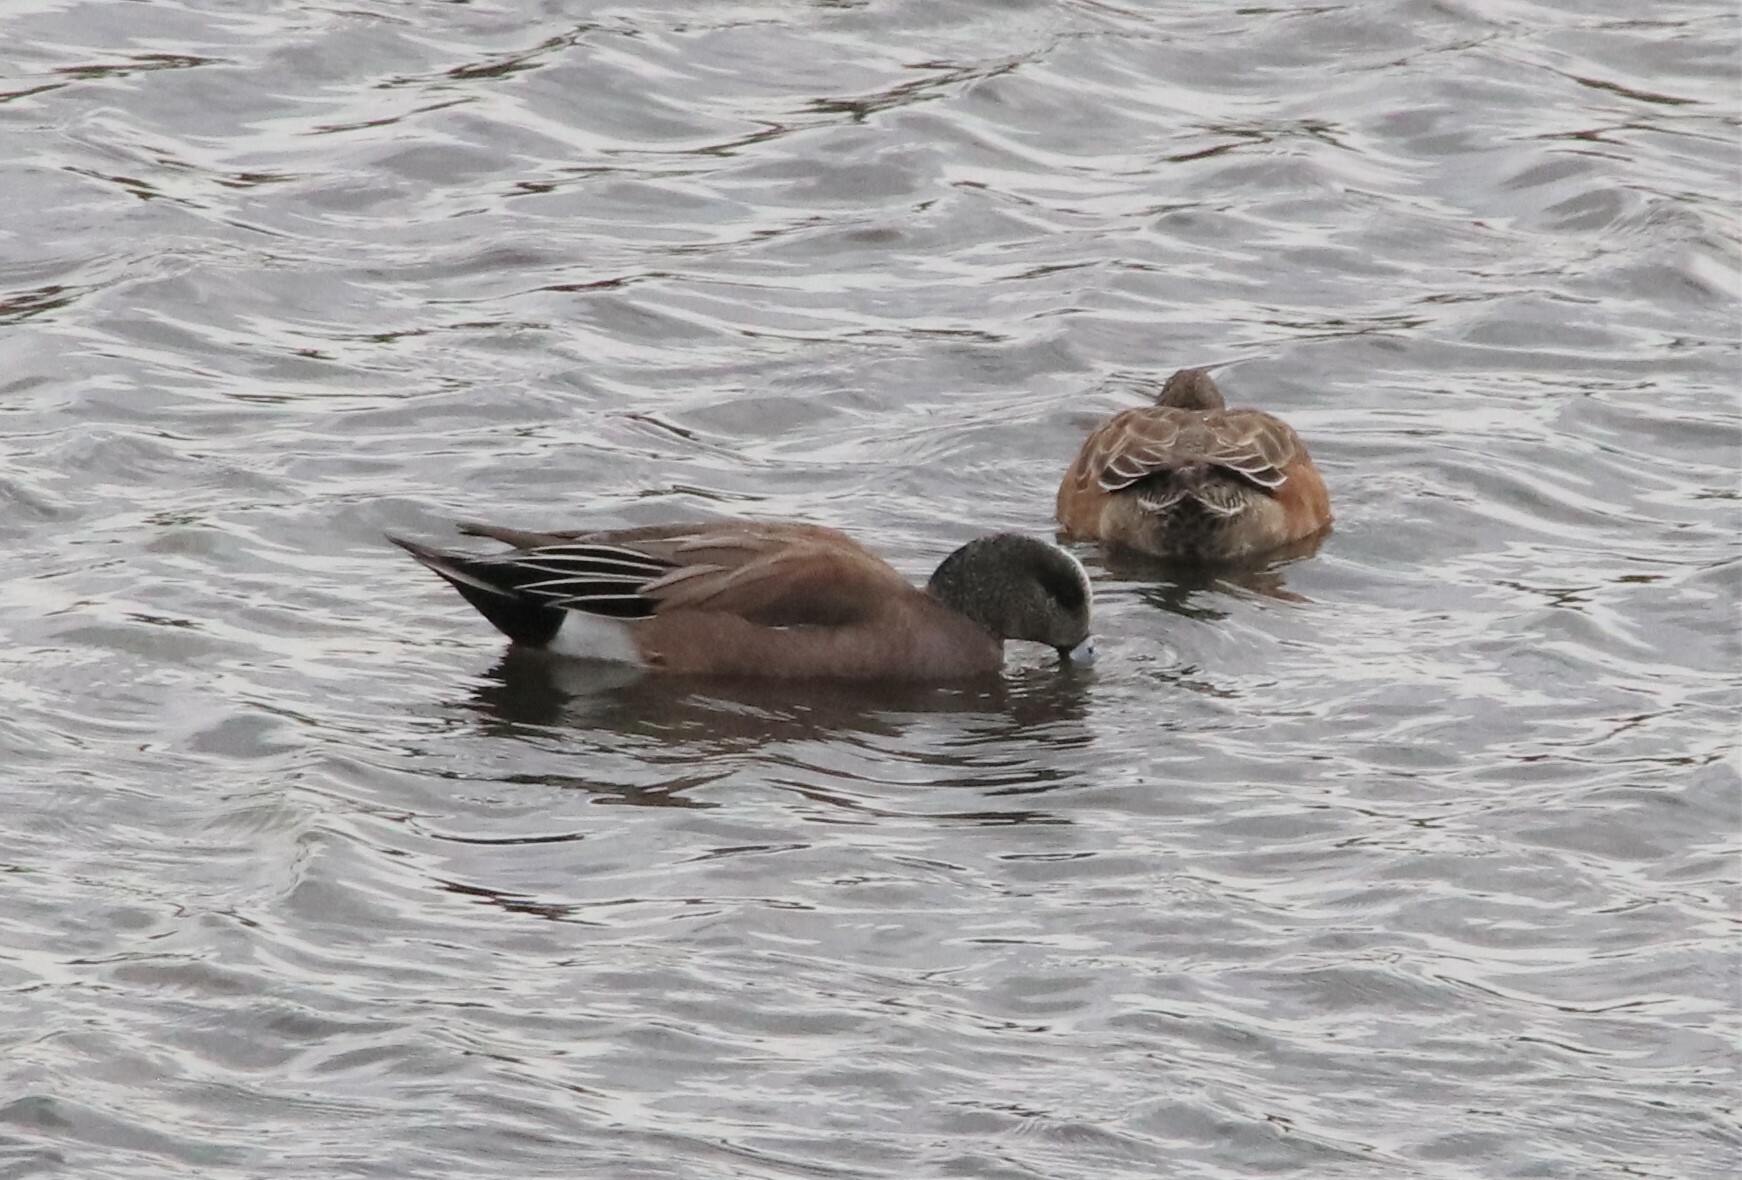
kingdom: Animalia
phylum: Chordata
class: Aves
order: Anseriformes
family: Anatidae
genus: Mareca
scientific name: Mareca americana
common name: American wigeon
